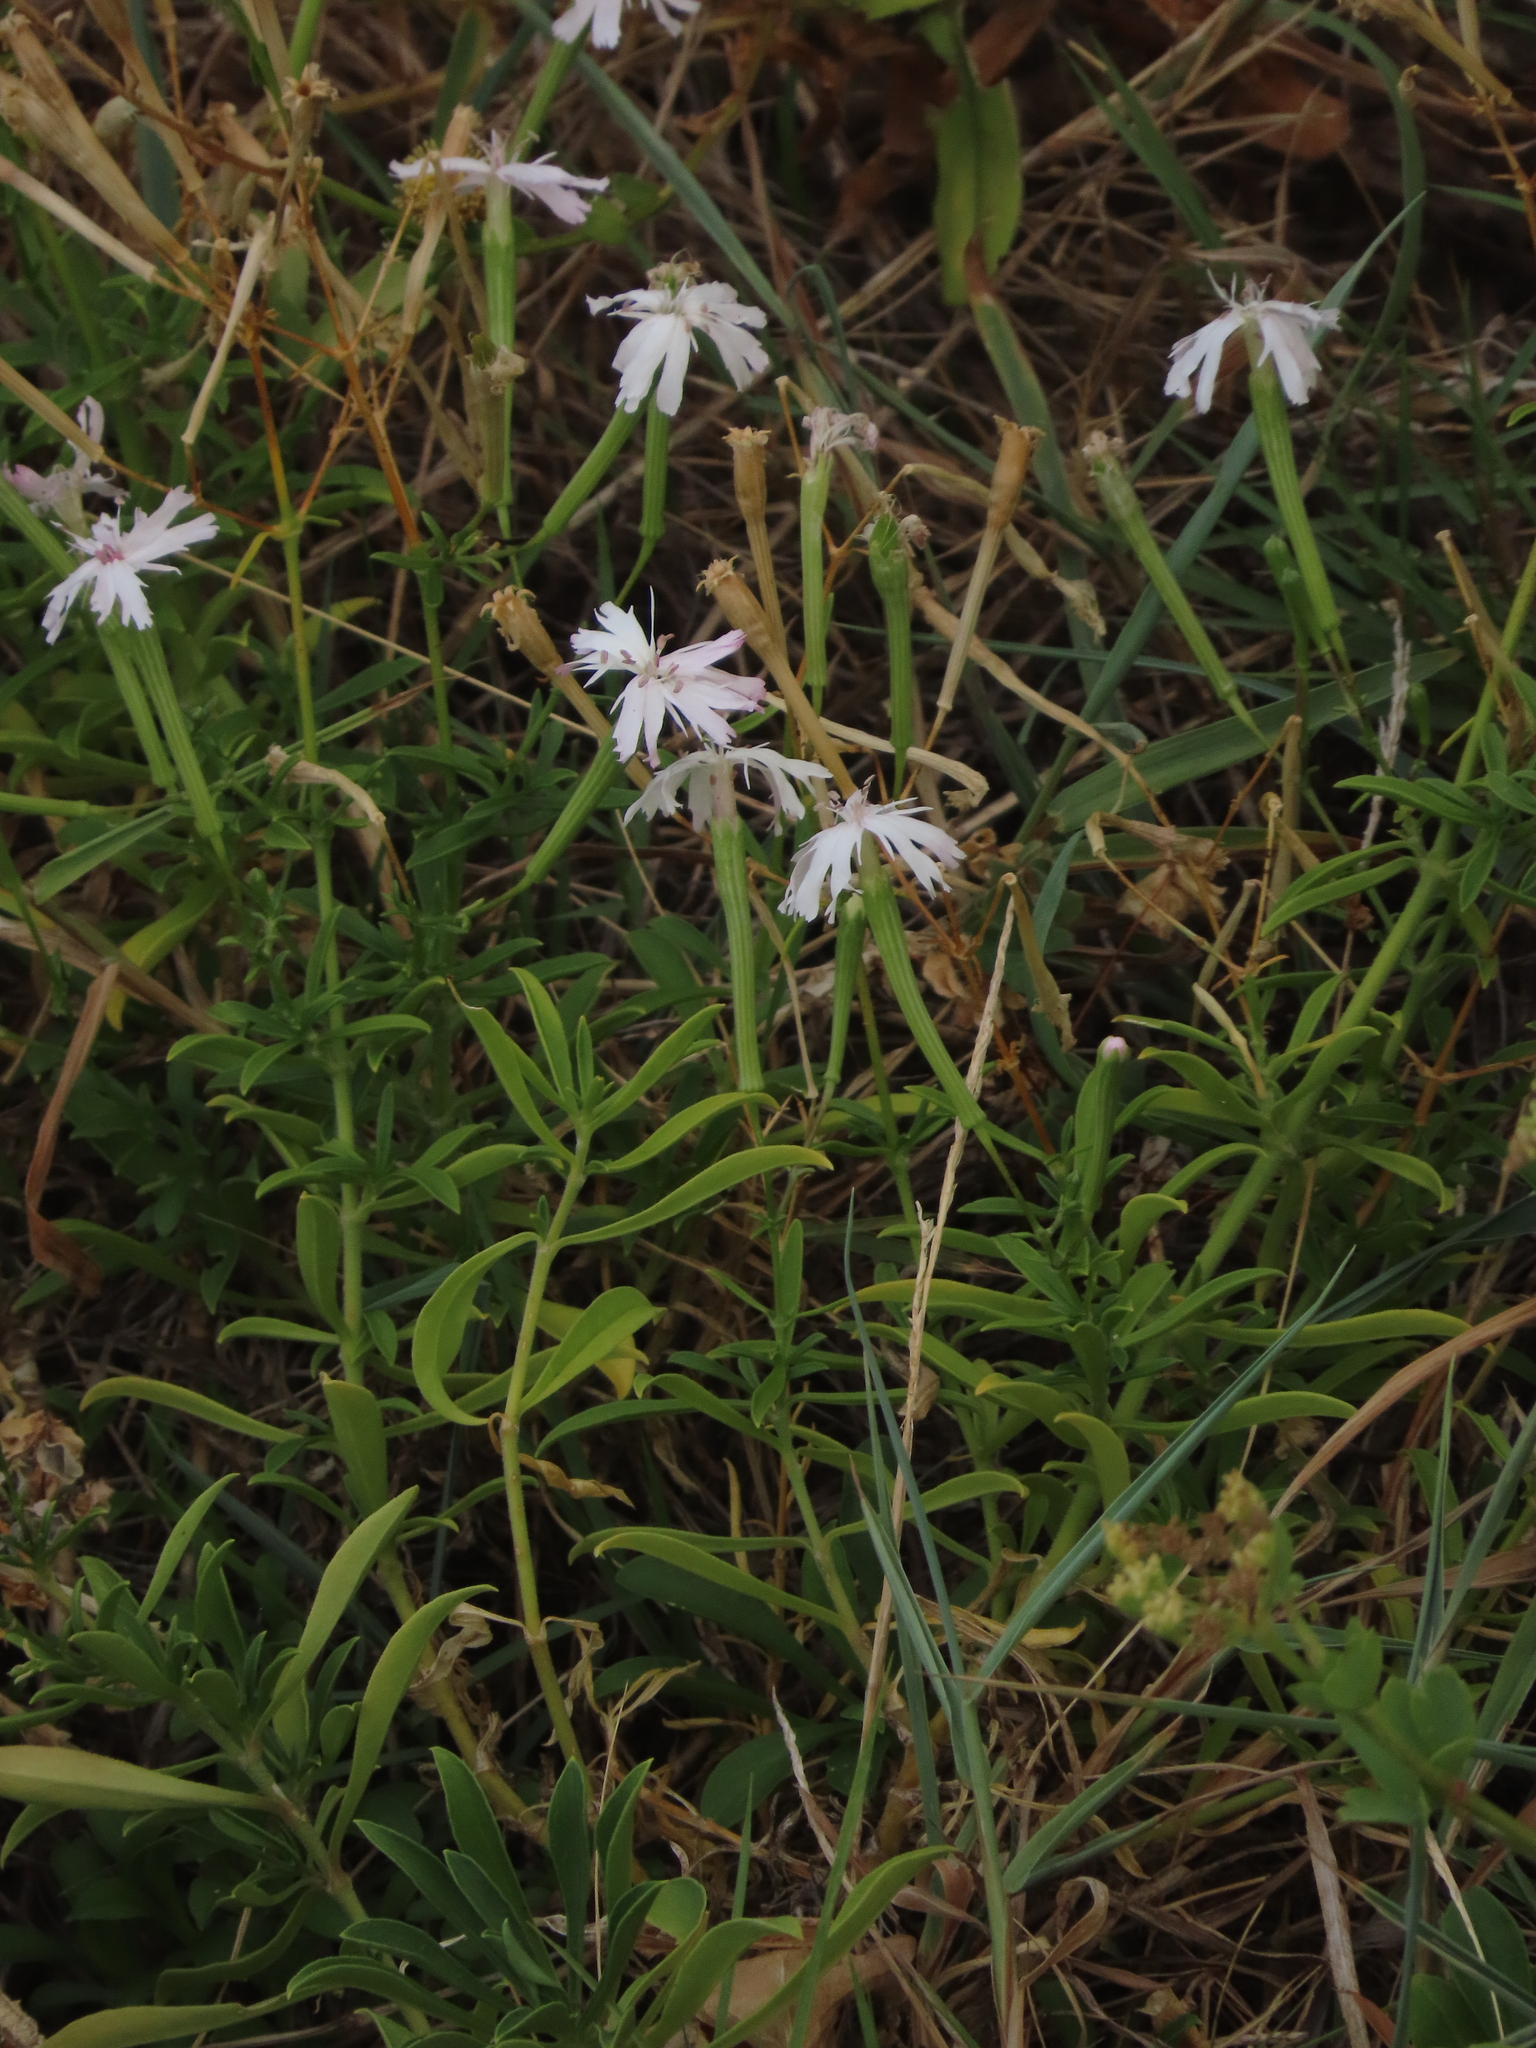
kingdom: Plantae
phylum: Tracheophyta
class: Magnoliopsida
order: Caryophyllales
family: Caryophyllaceae
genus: Silene
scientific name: Silene fissipetala
